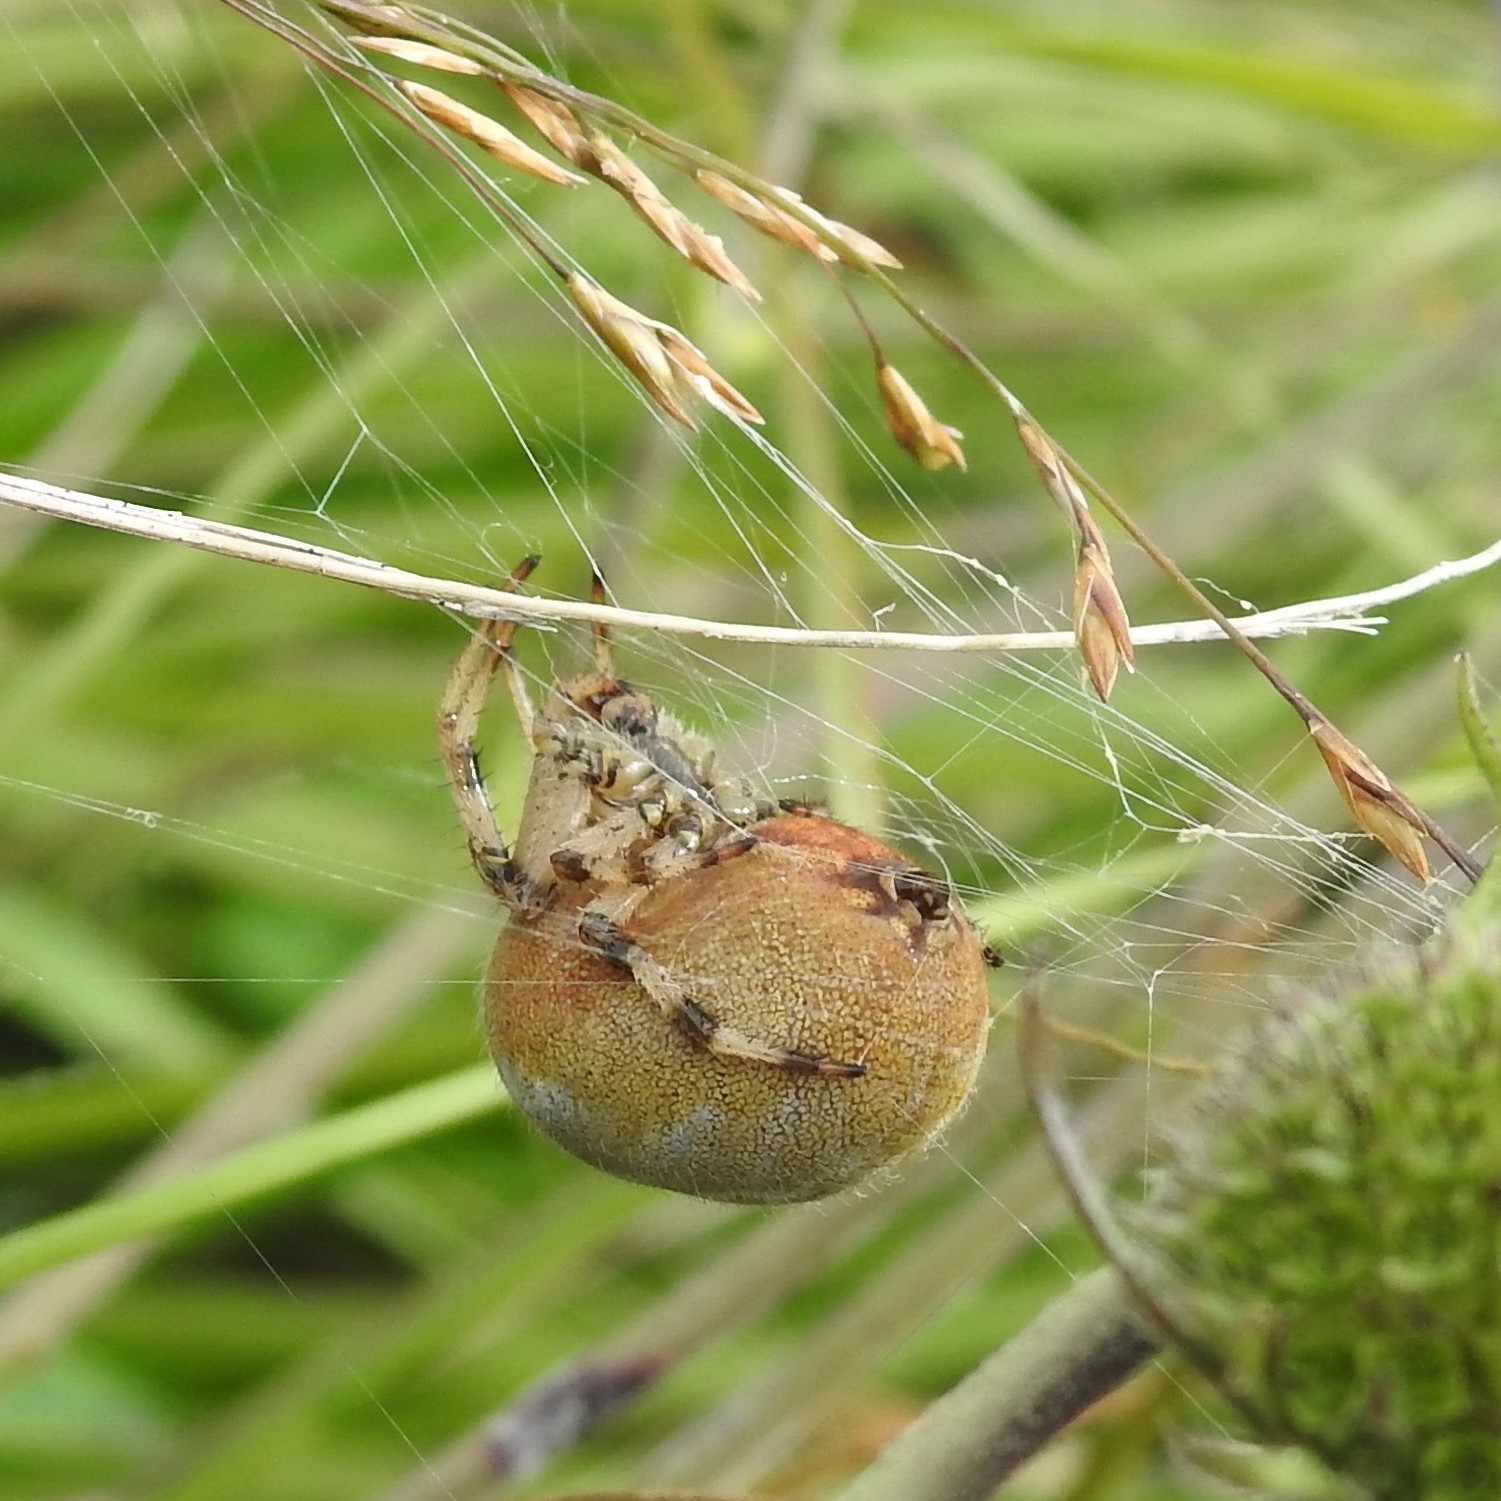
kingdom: Animalia
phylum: Arthropoda
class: Arachnida
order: Araneae
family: Araneidae
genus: Araneus
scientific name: Araneus quadratus
